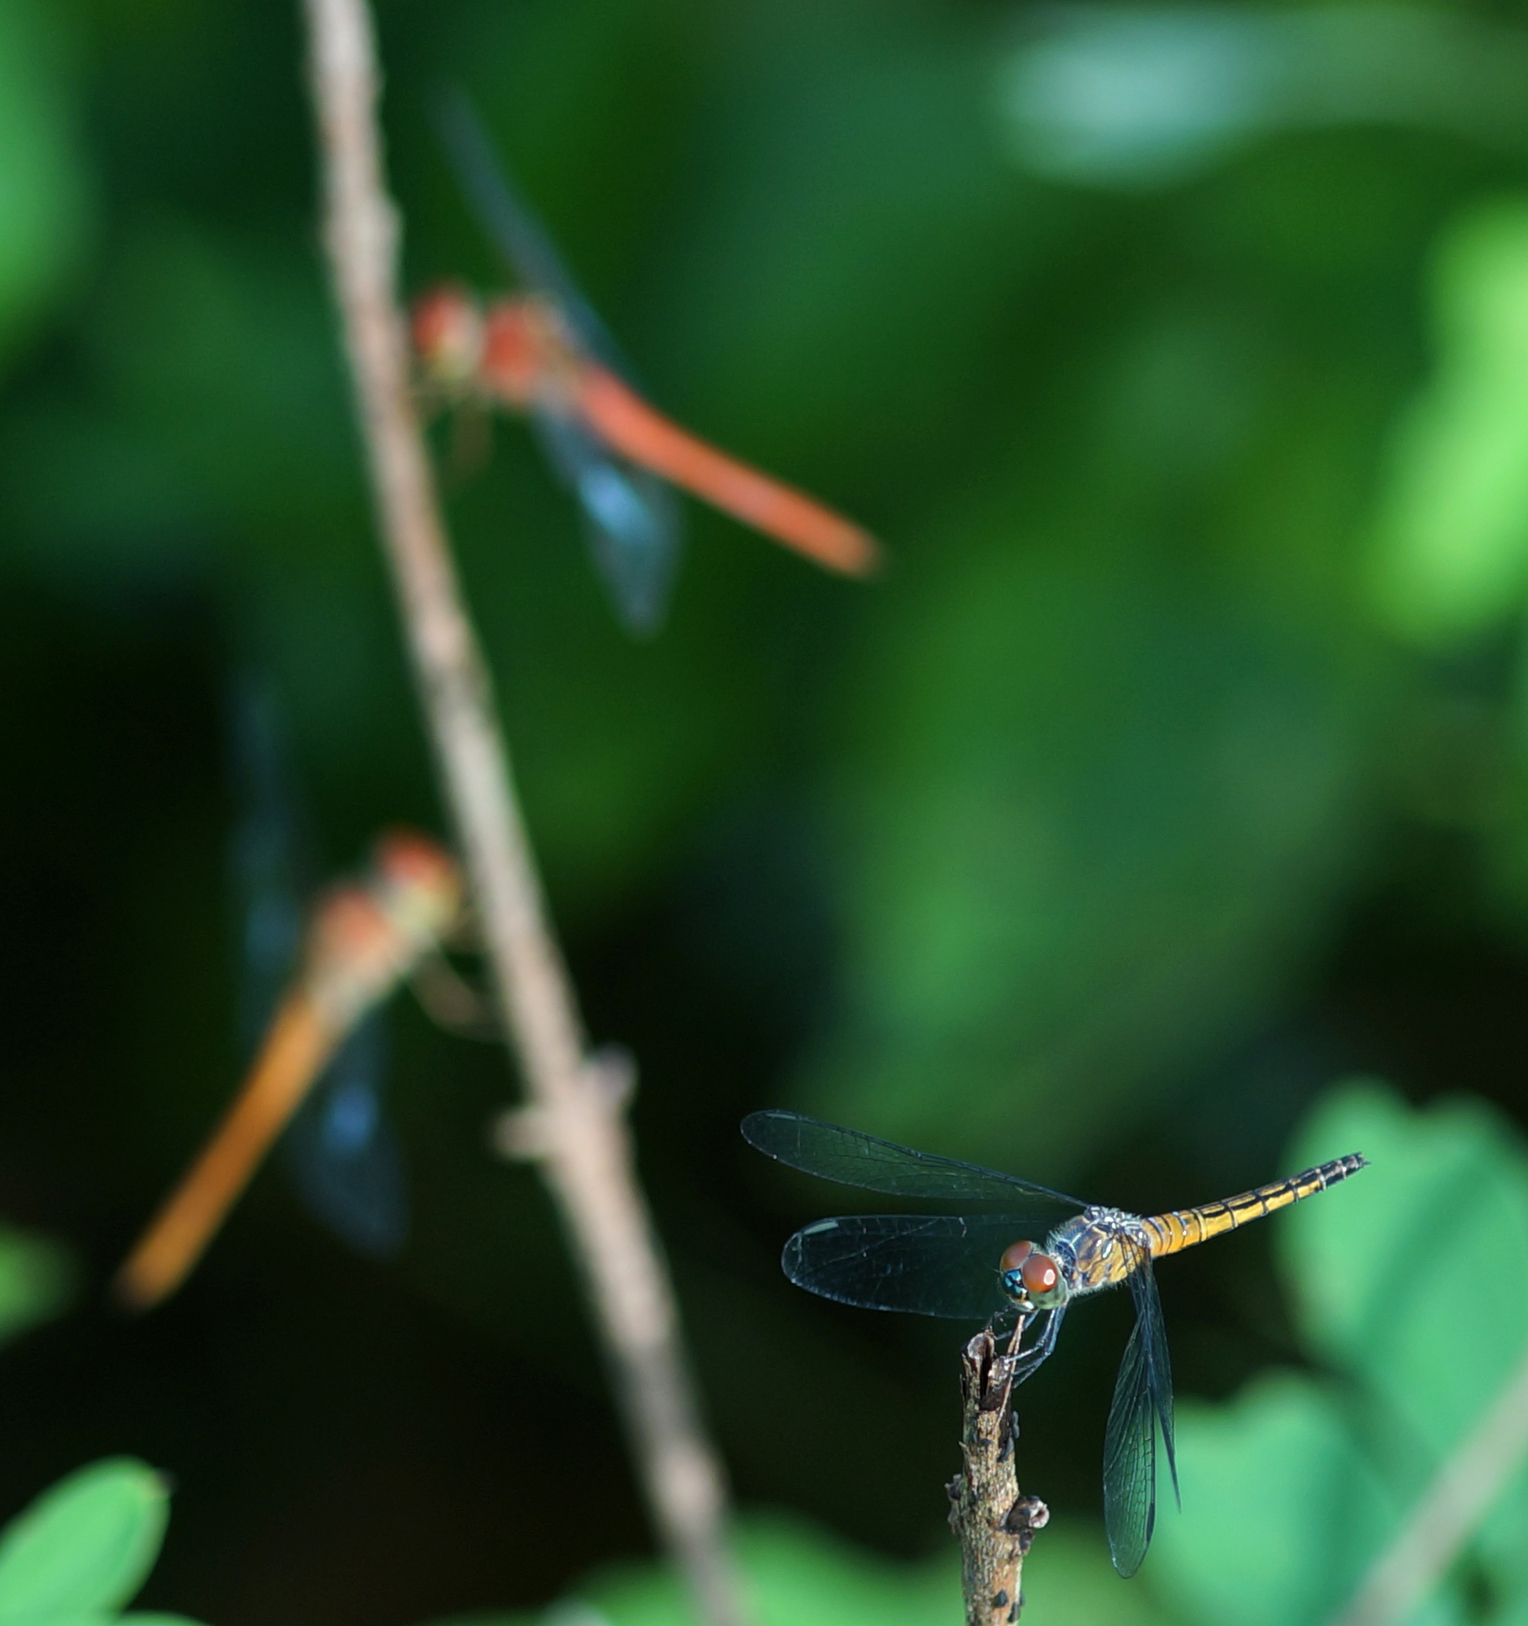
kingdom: Animalia
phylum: Arthropoda
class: Insecta
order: Odonata
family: Libellulidae
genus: Brachydiplax
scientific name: Brachydiplax chalybea
